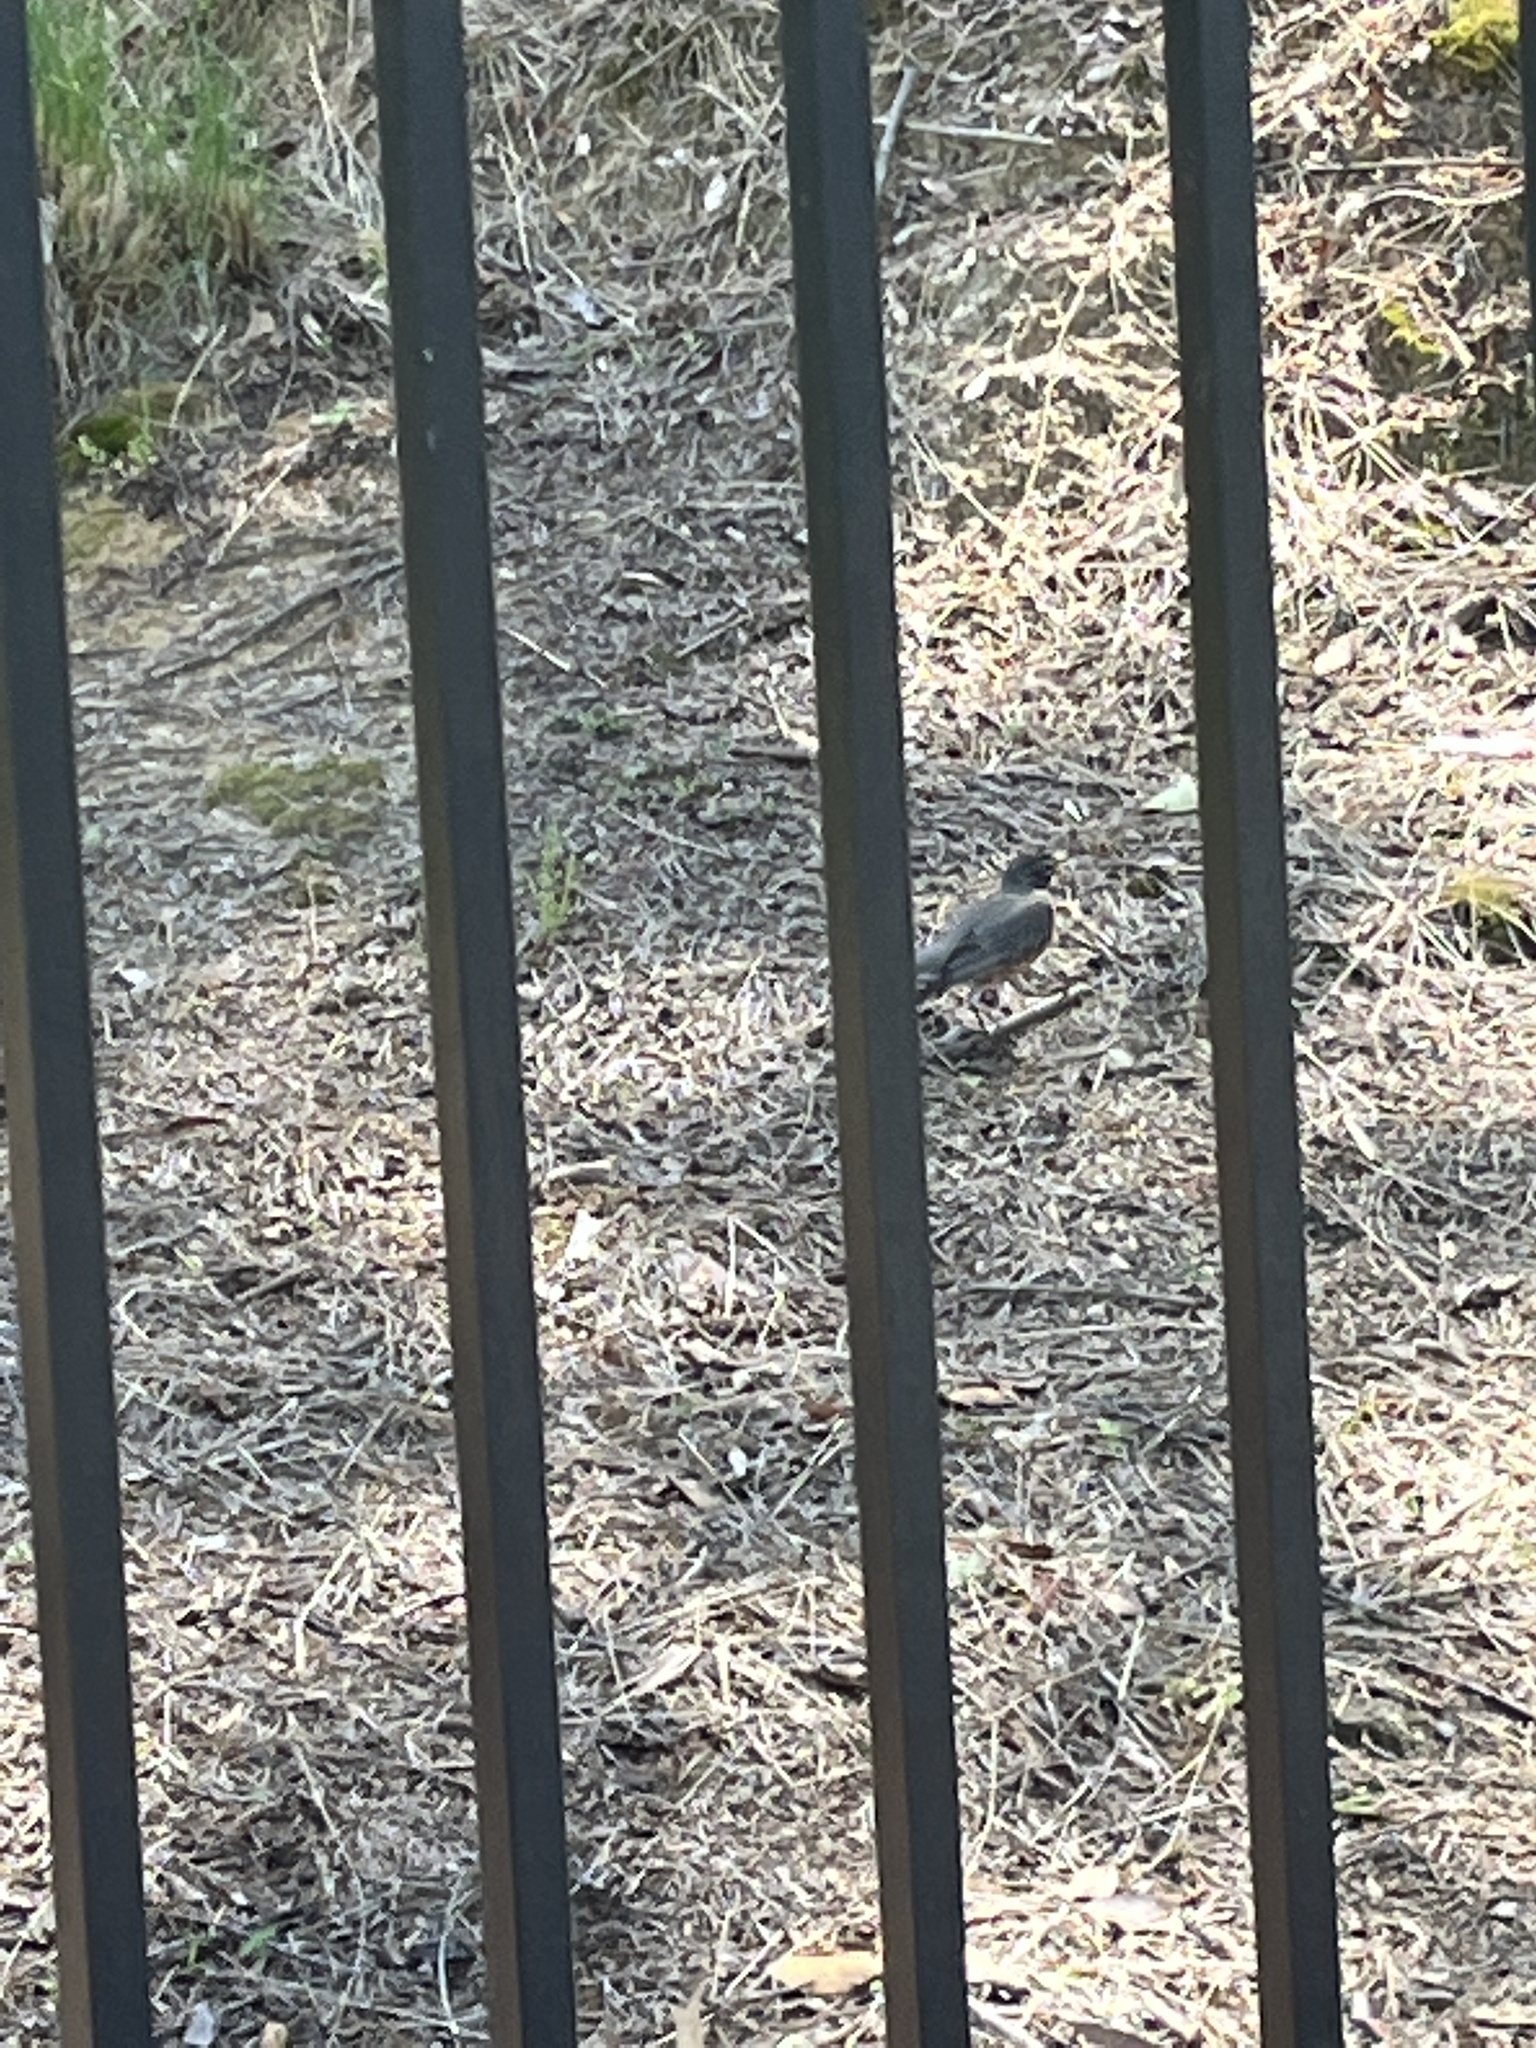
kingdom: Animalia
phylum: Chordata
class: Aves
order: Passeriformes
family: Turdidae
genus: Turdus
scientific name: Turdus migratorius
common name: American robin
